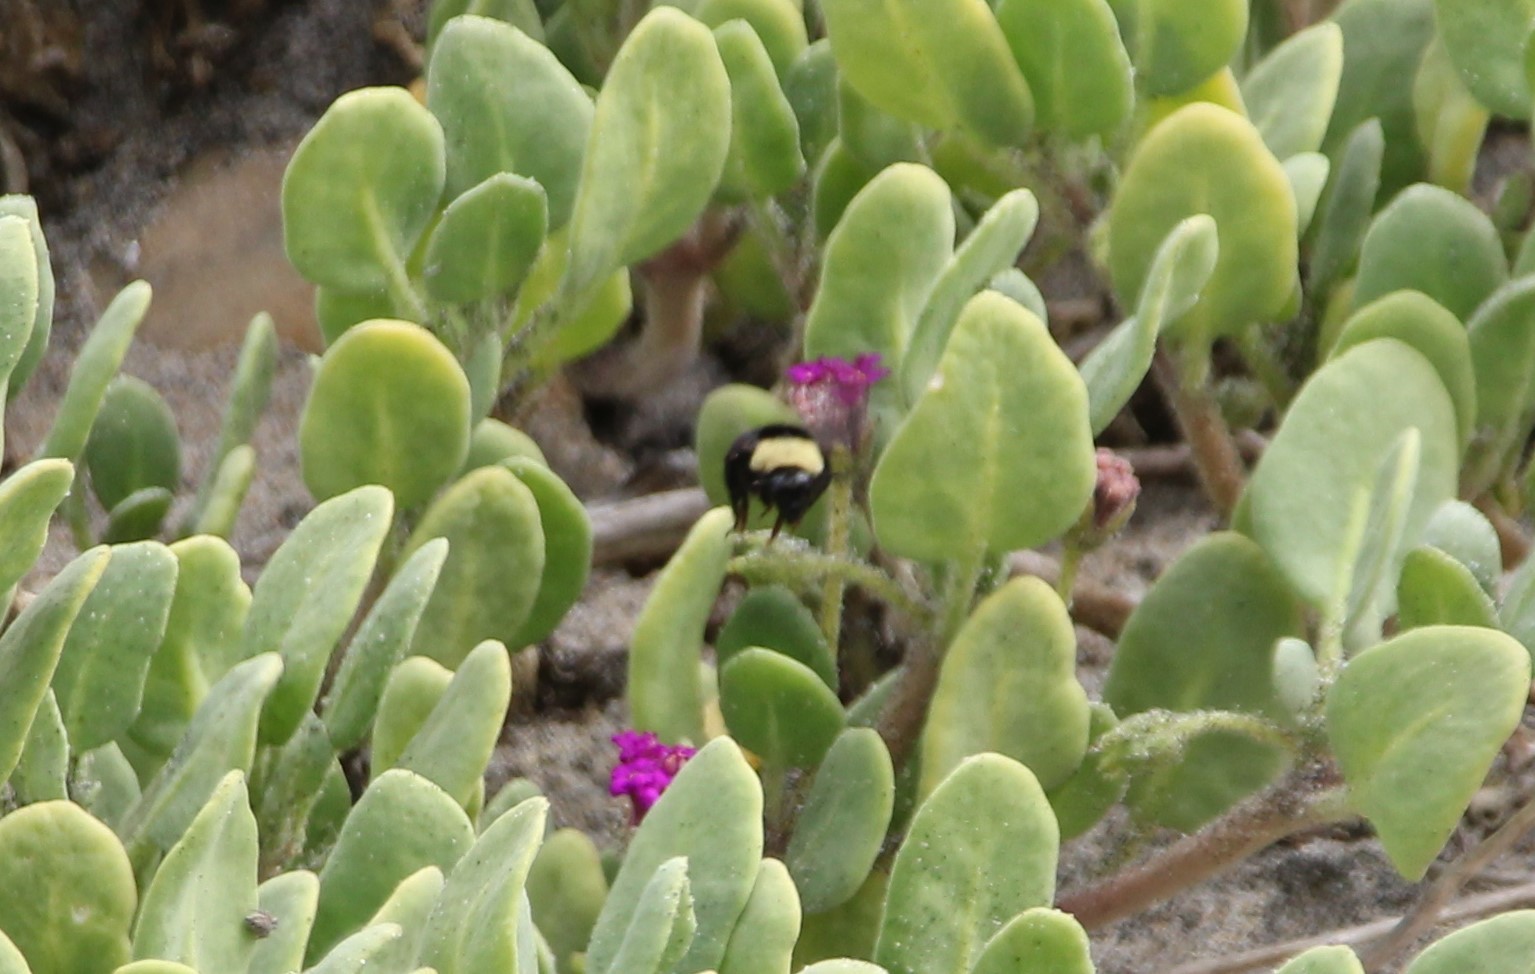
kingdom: Animalia
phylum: Arthropoda
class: Insecta
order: Hymenoptera
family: Apidae
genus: Bombus
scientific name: Bombus californicus
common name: California bumble bee
